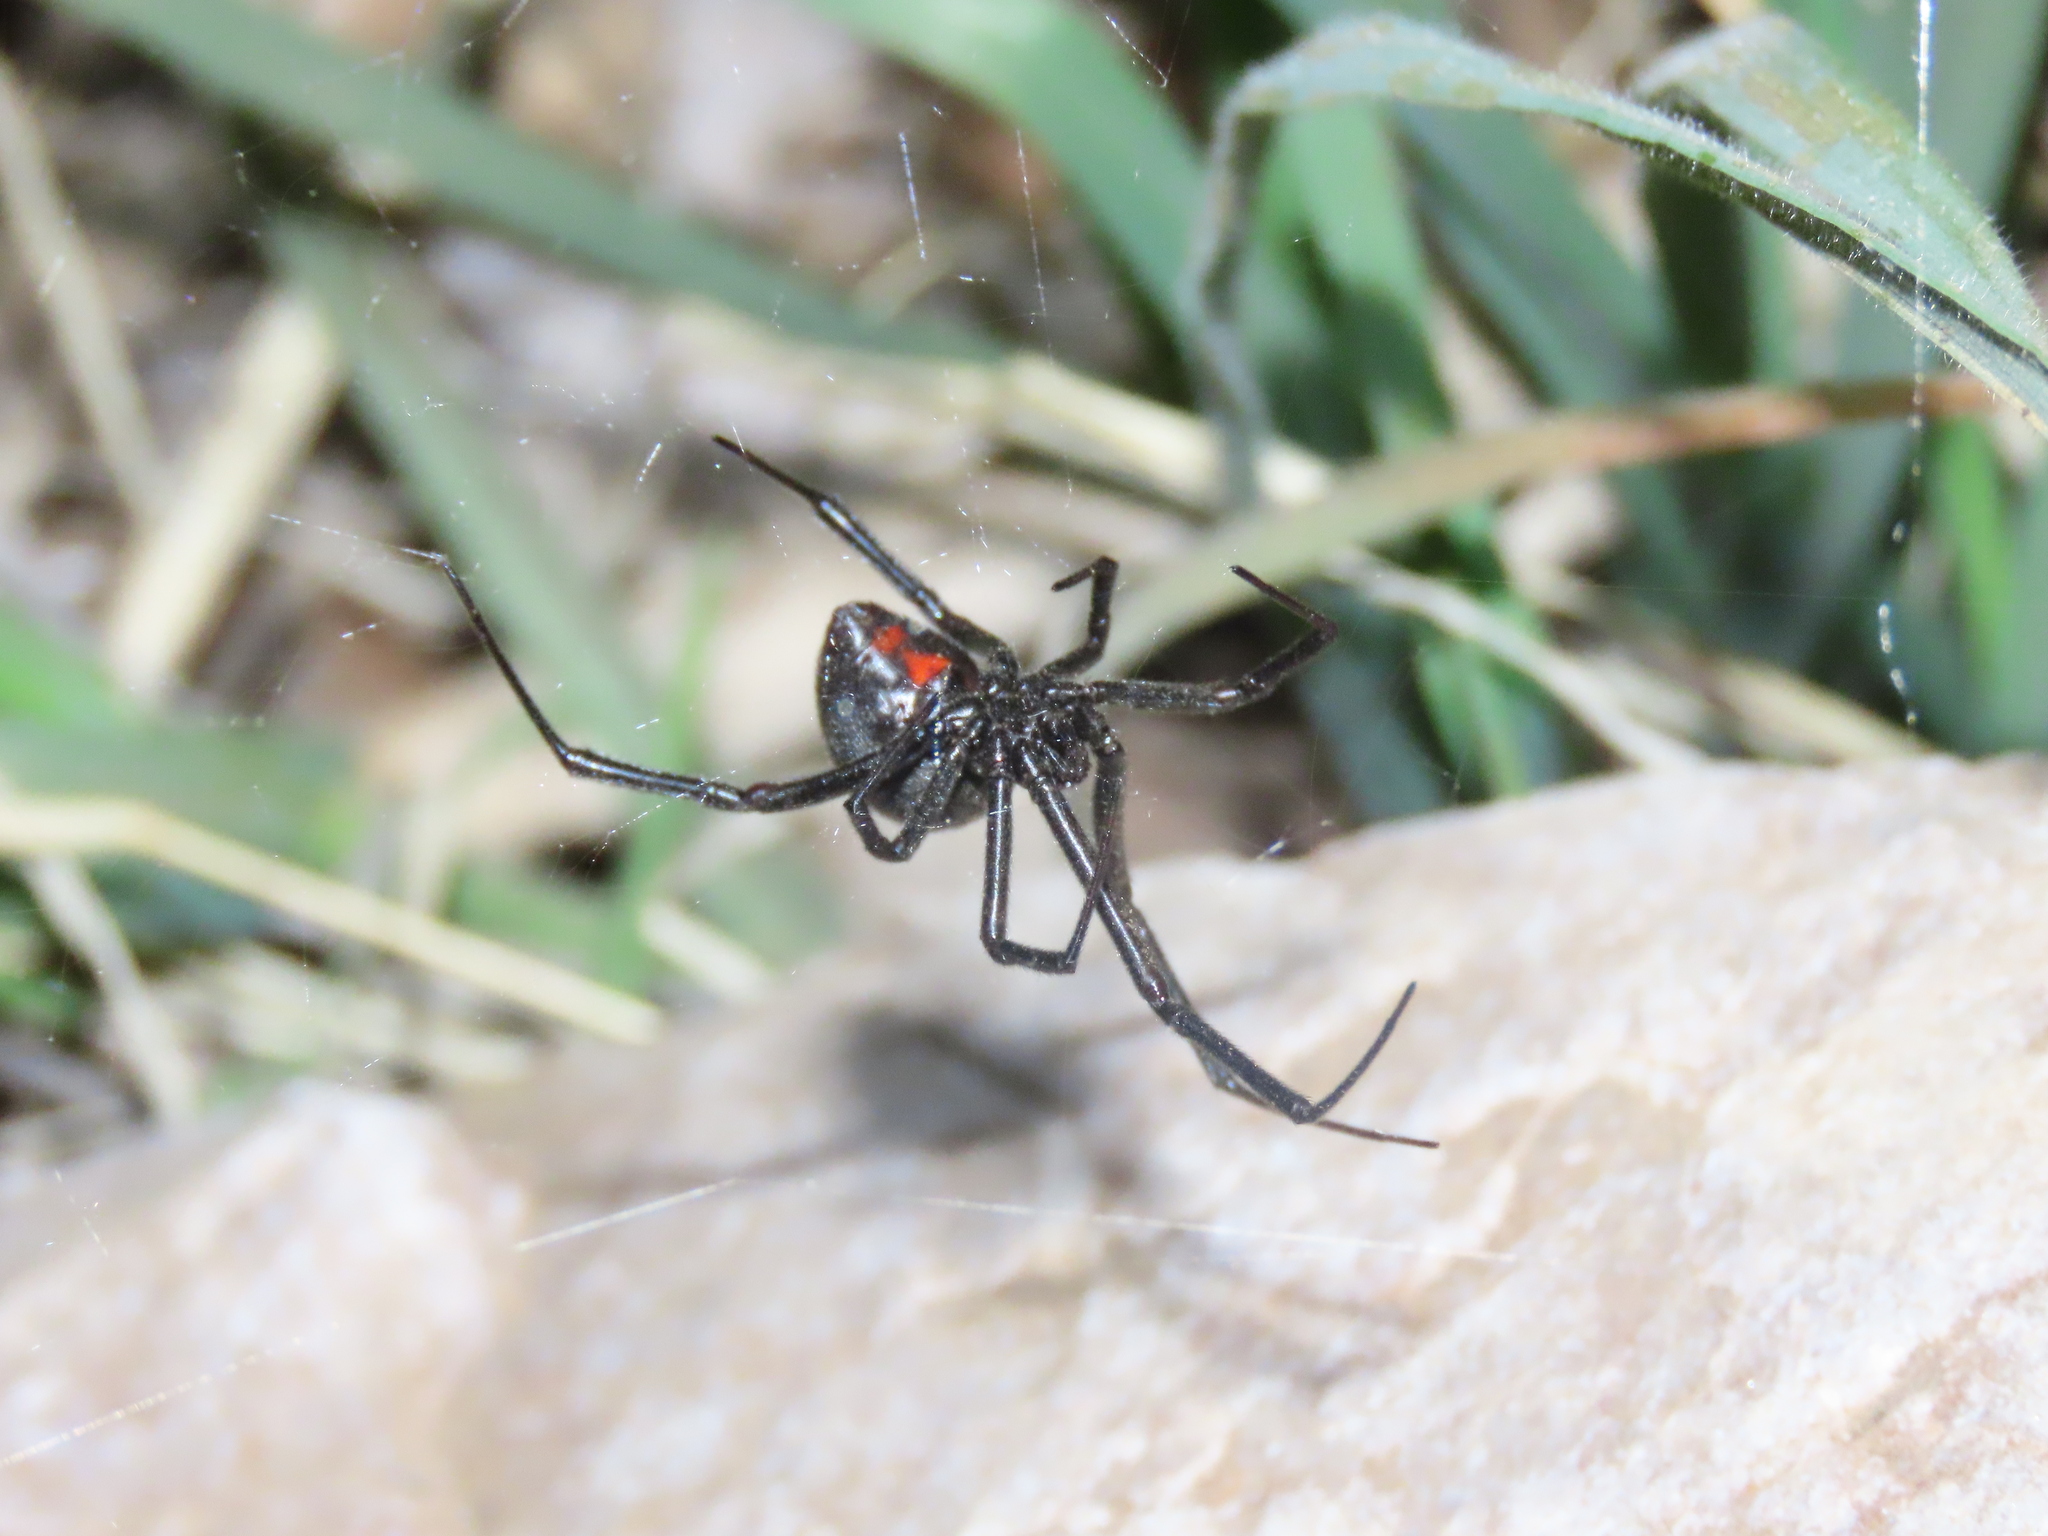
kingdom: Animalia
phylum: Arthropoda
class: Arachnida
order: Araneae
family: Theridiidae
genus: Latrodectus
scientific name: Latrodectus hesperus
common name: Western black widow
